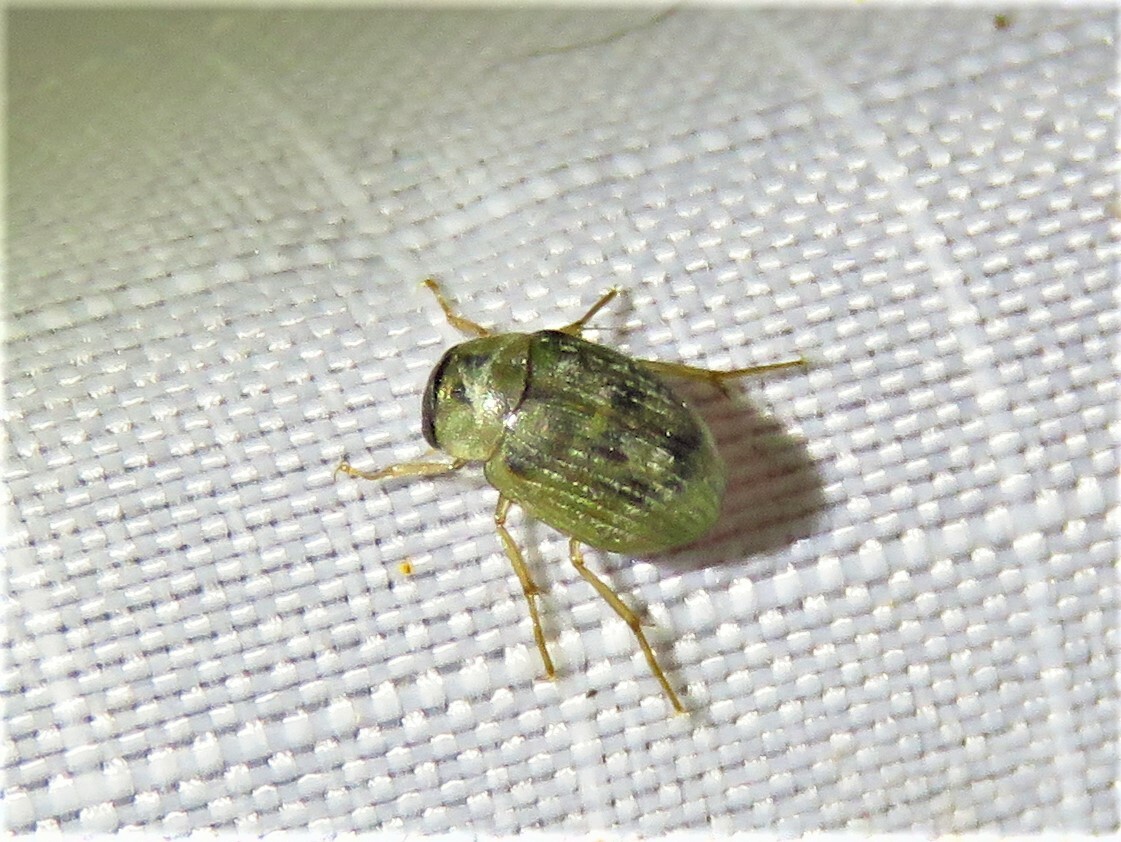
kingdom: Animalia
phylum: Arthropoda
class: Insecta
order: Coleoptera
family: Hydrophilidae
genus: Berosus
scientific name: Berosus
